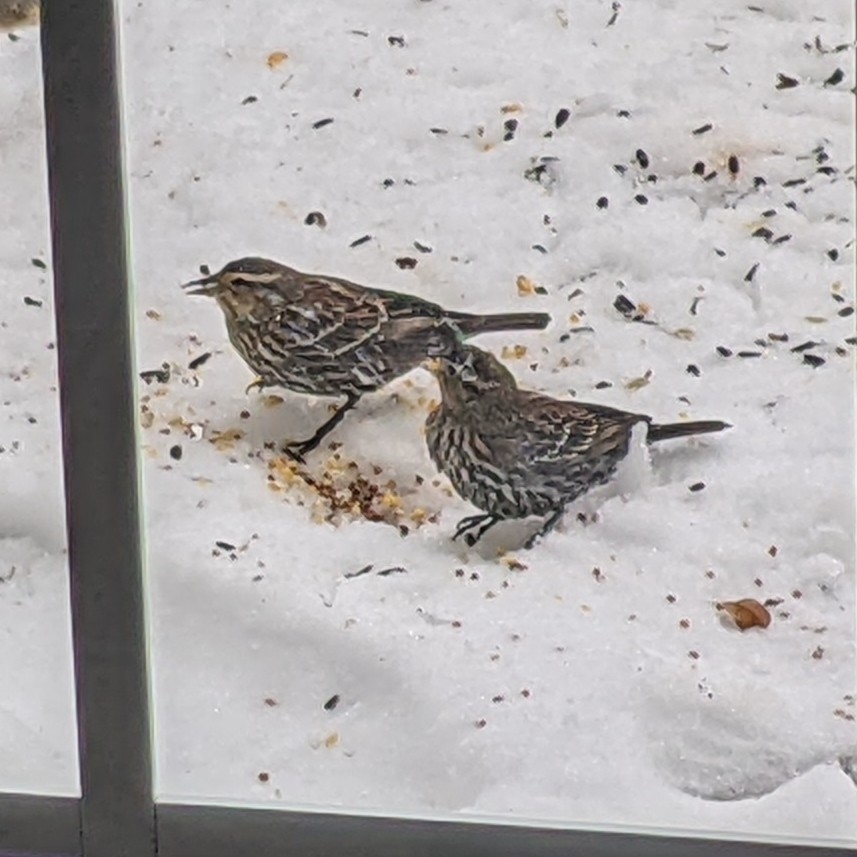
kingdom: Animalia
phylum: Chordata
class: Aves
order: Passeriformes
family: Icteridae
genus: Agelaius
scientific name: Agelaius phoeniceus
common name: Red-winged blackbird
